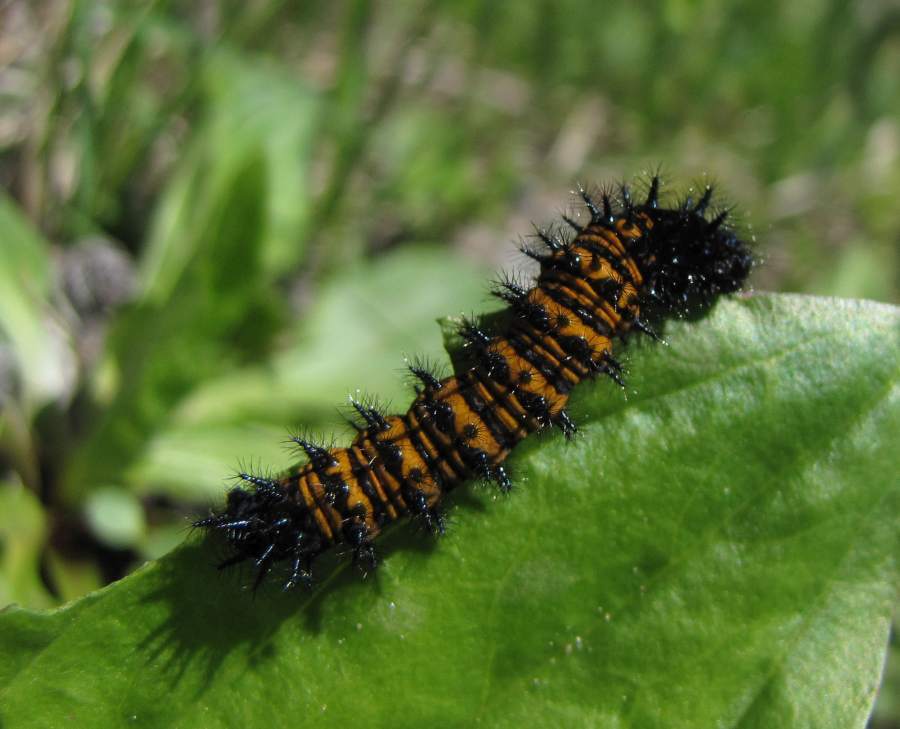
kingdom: Animalia
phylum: Arthropoda
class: Insecta
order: Lepidoptera
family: Nymphalidae
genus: Euphydryas
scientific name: Euphydryas phaeton
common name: Baltimore checkerspot
